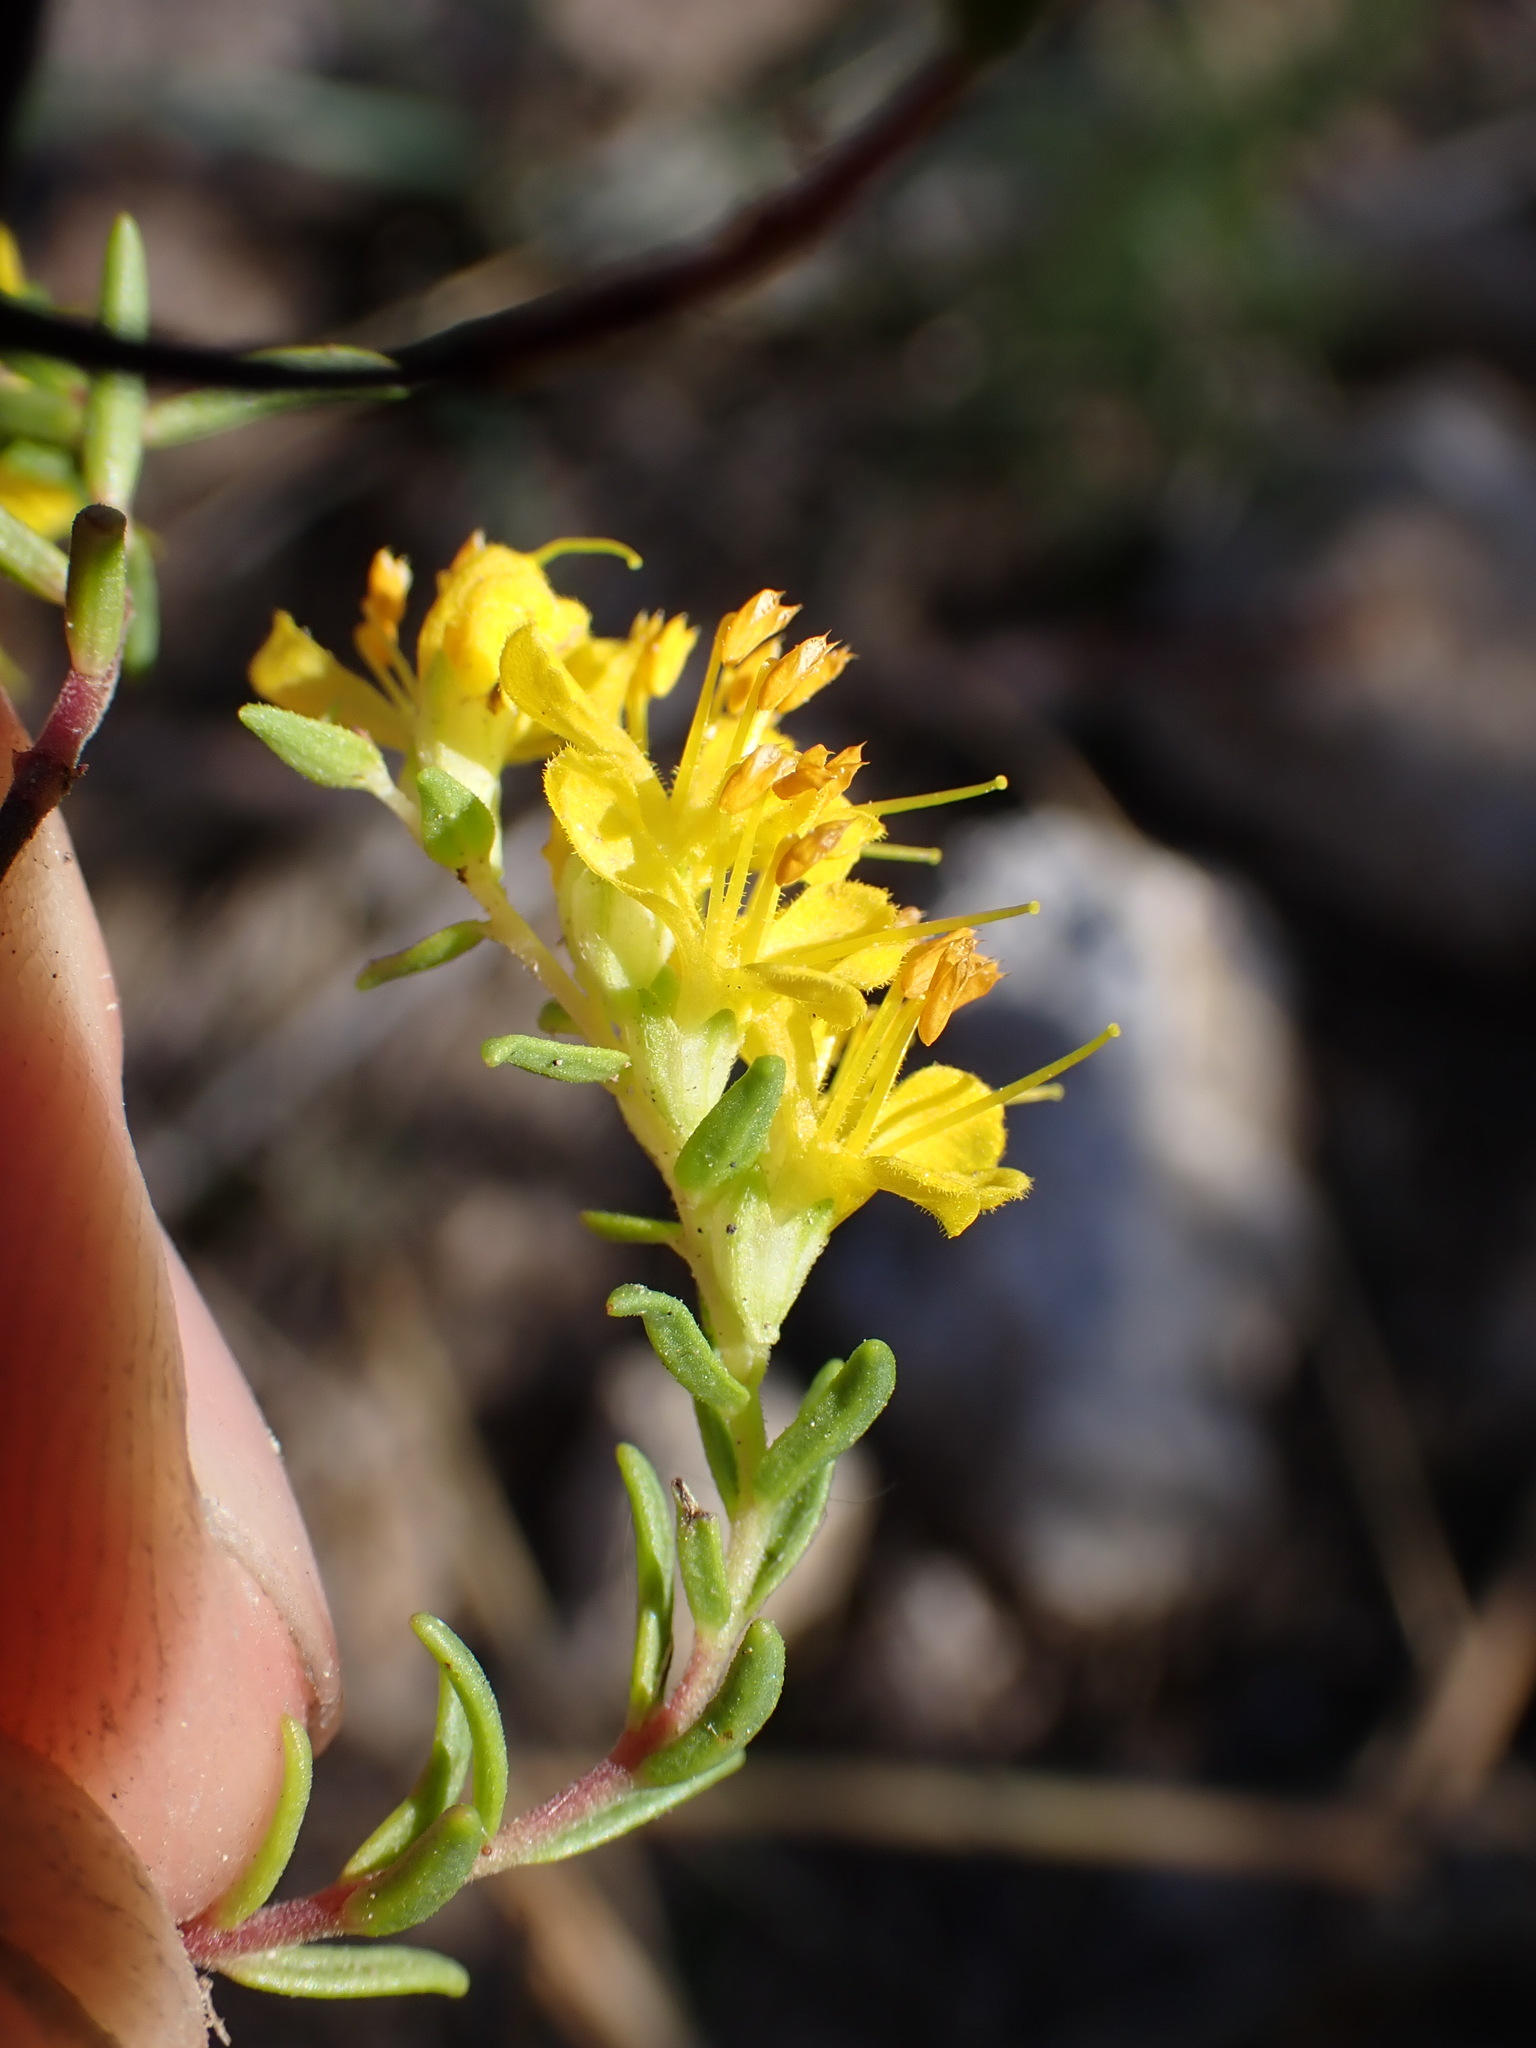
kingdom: Plantae
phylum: Tracheophyta
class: Magnoliopsida
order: Lamiales
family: Orobanchaceae
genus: Odontites
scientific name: Odontites luteus
